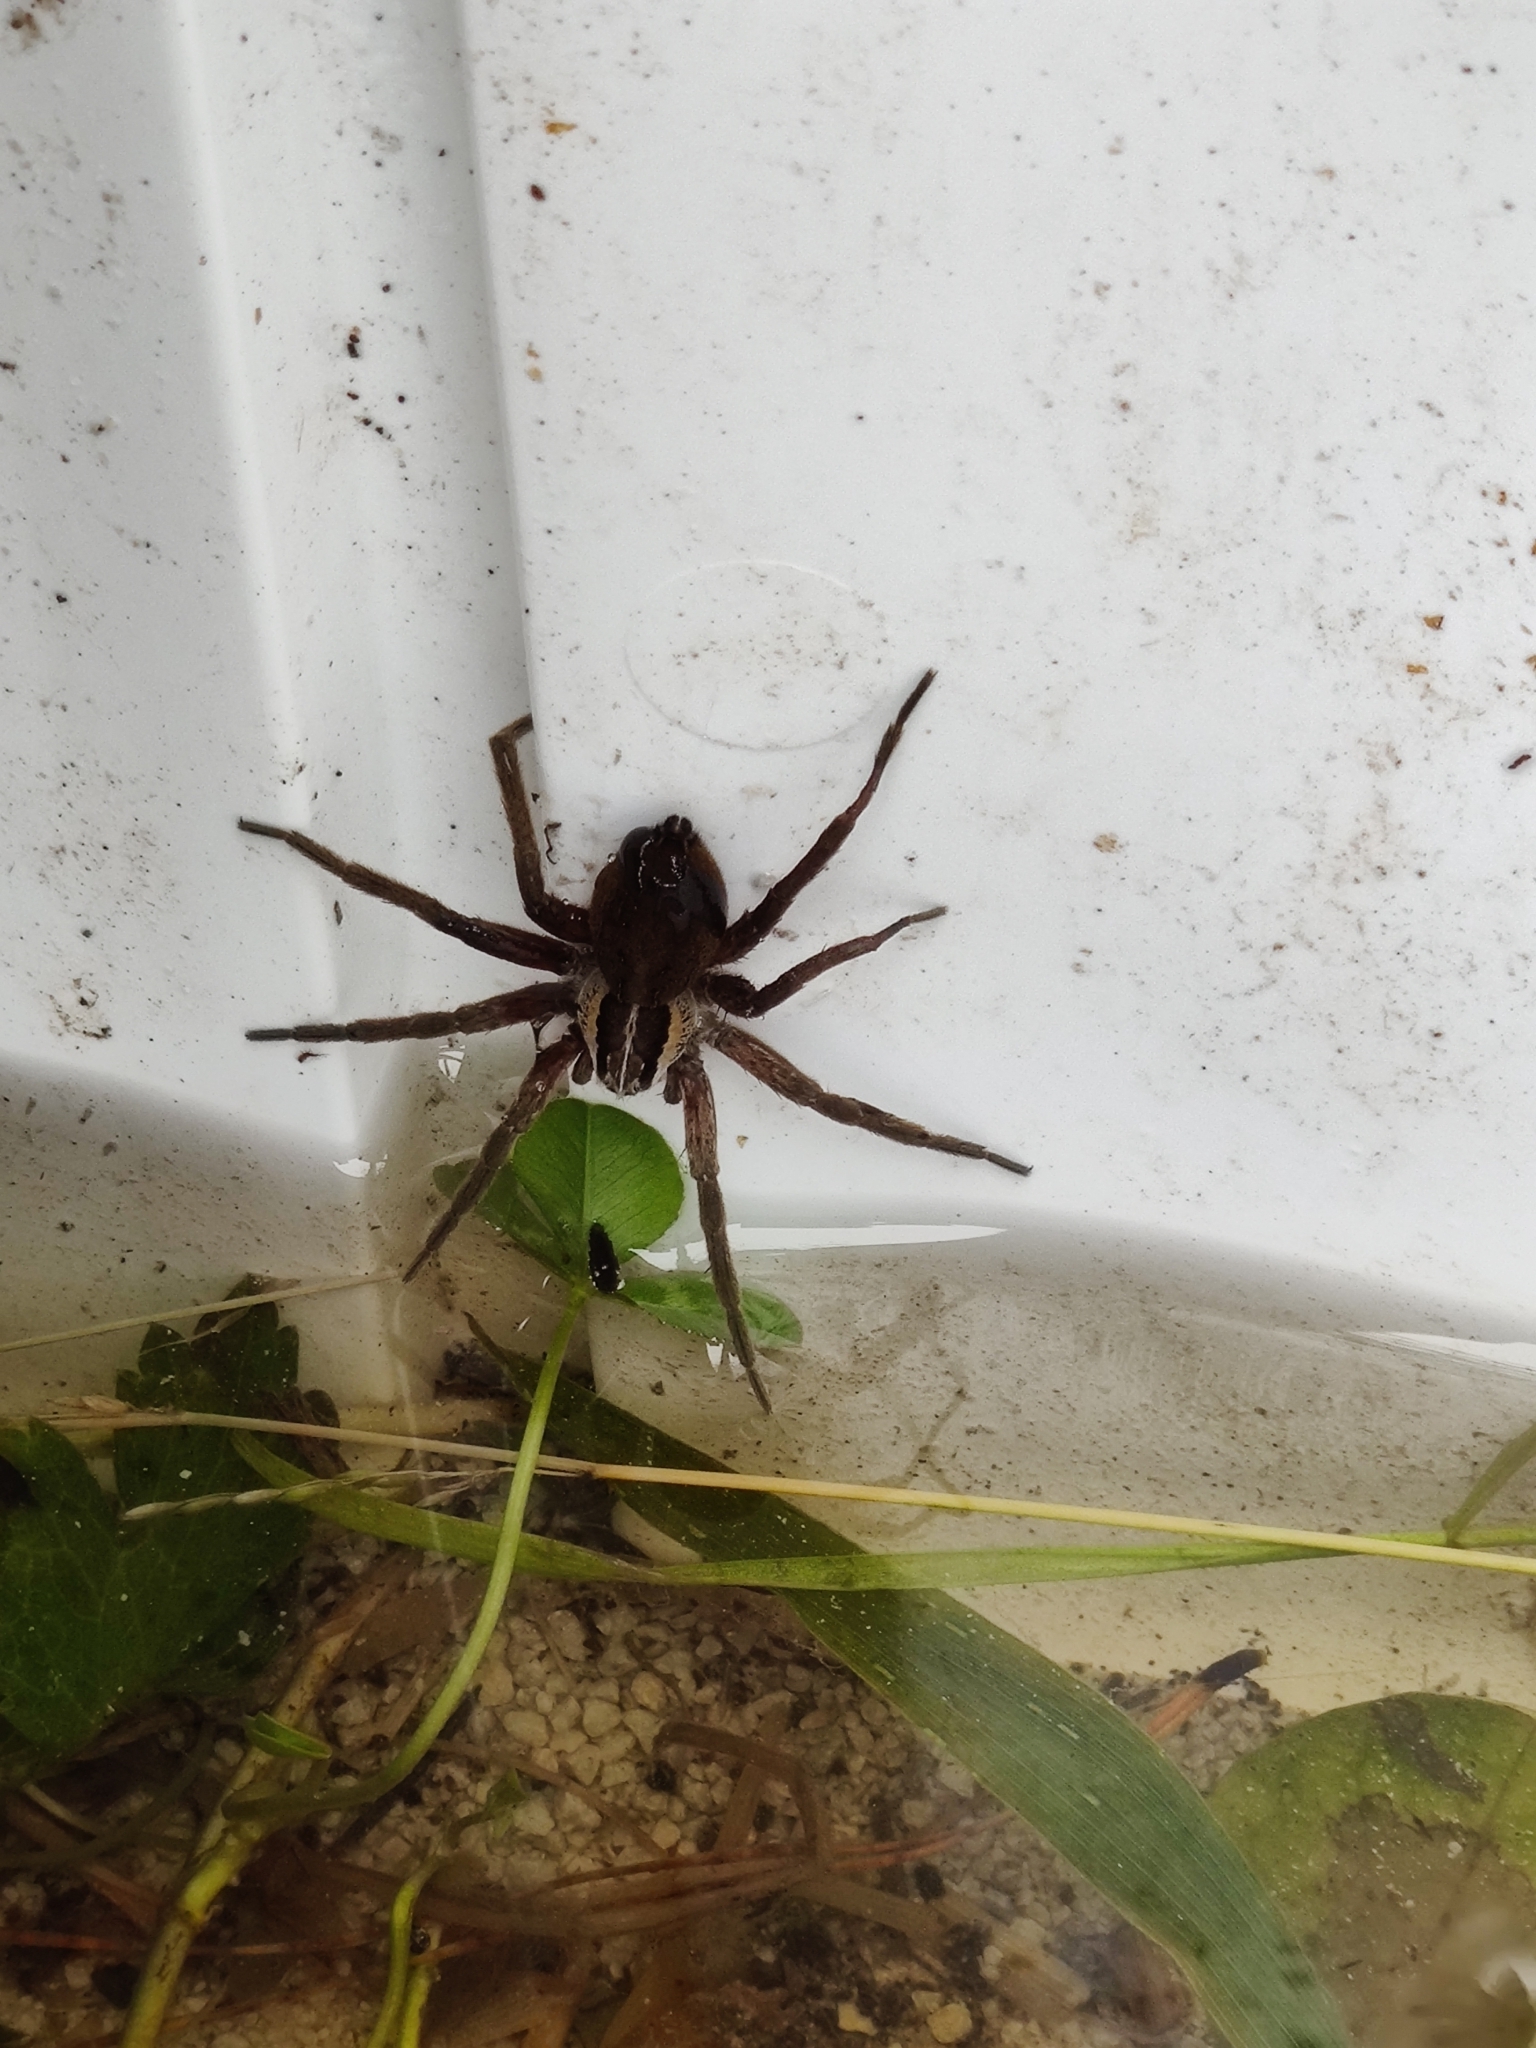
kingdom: Animalia
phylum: Arthropoda
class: Arachnida
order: Araneae
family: Pisauridae
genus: Dolomedes
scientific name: Dolomedes minor
